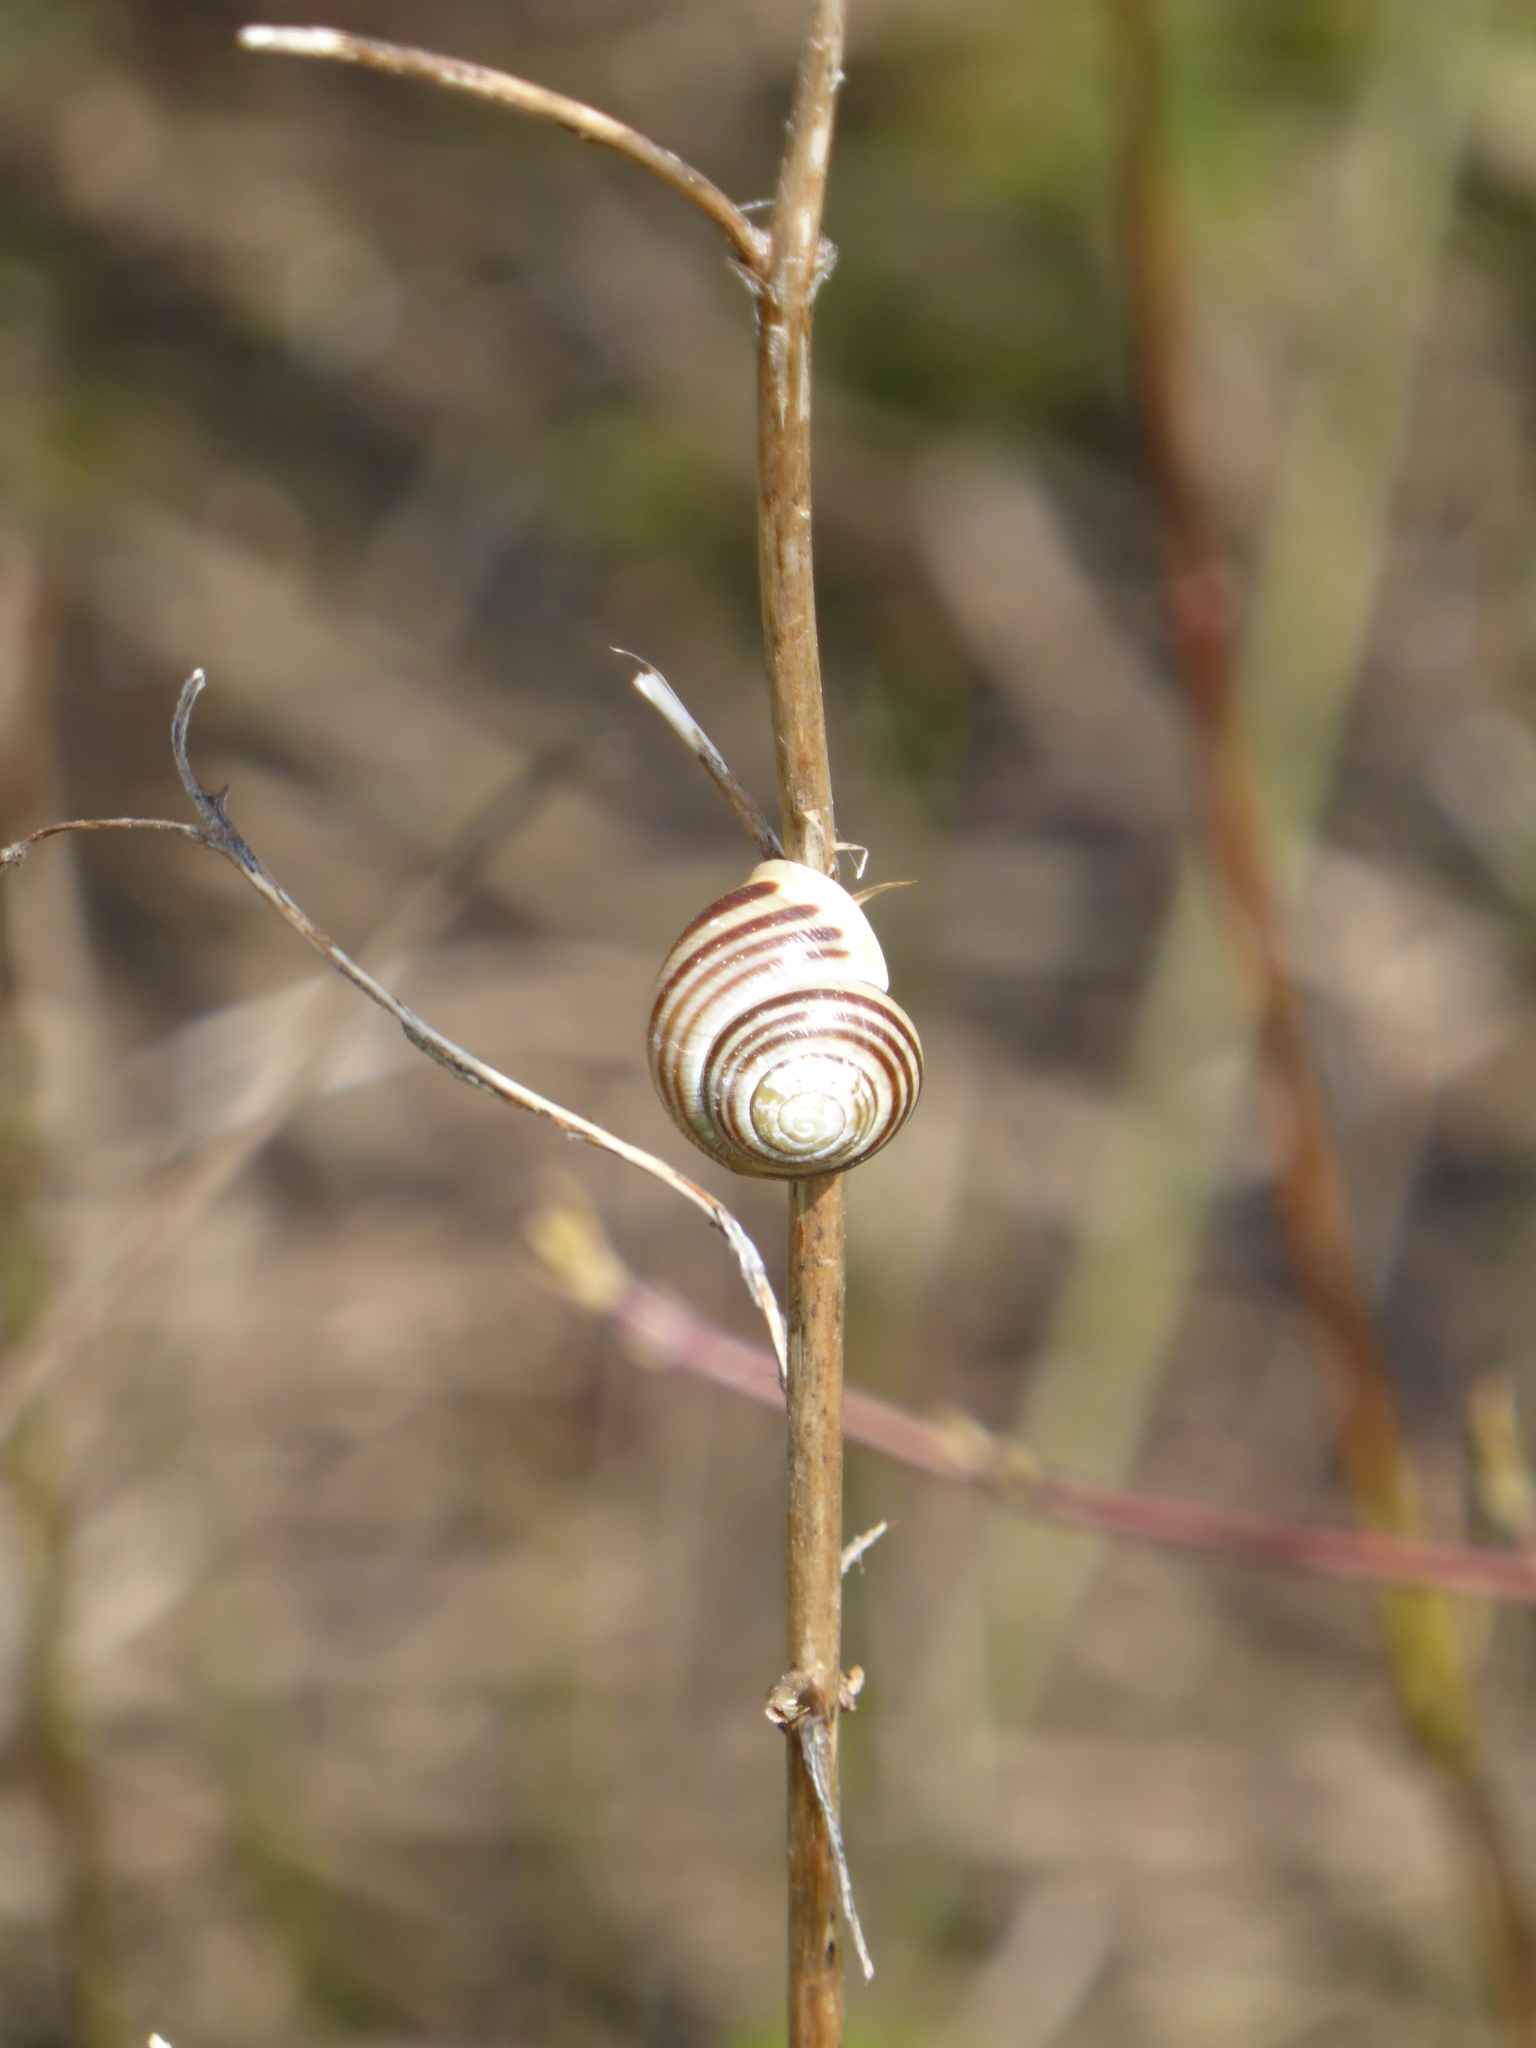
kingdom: Animalia
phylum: Mollusca
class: Gastropoda
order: Stylommatophora
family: Helicidae
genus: Cepaea
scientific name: Cepaea hortensis
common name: White-lip gardensnail
